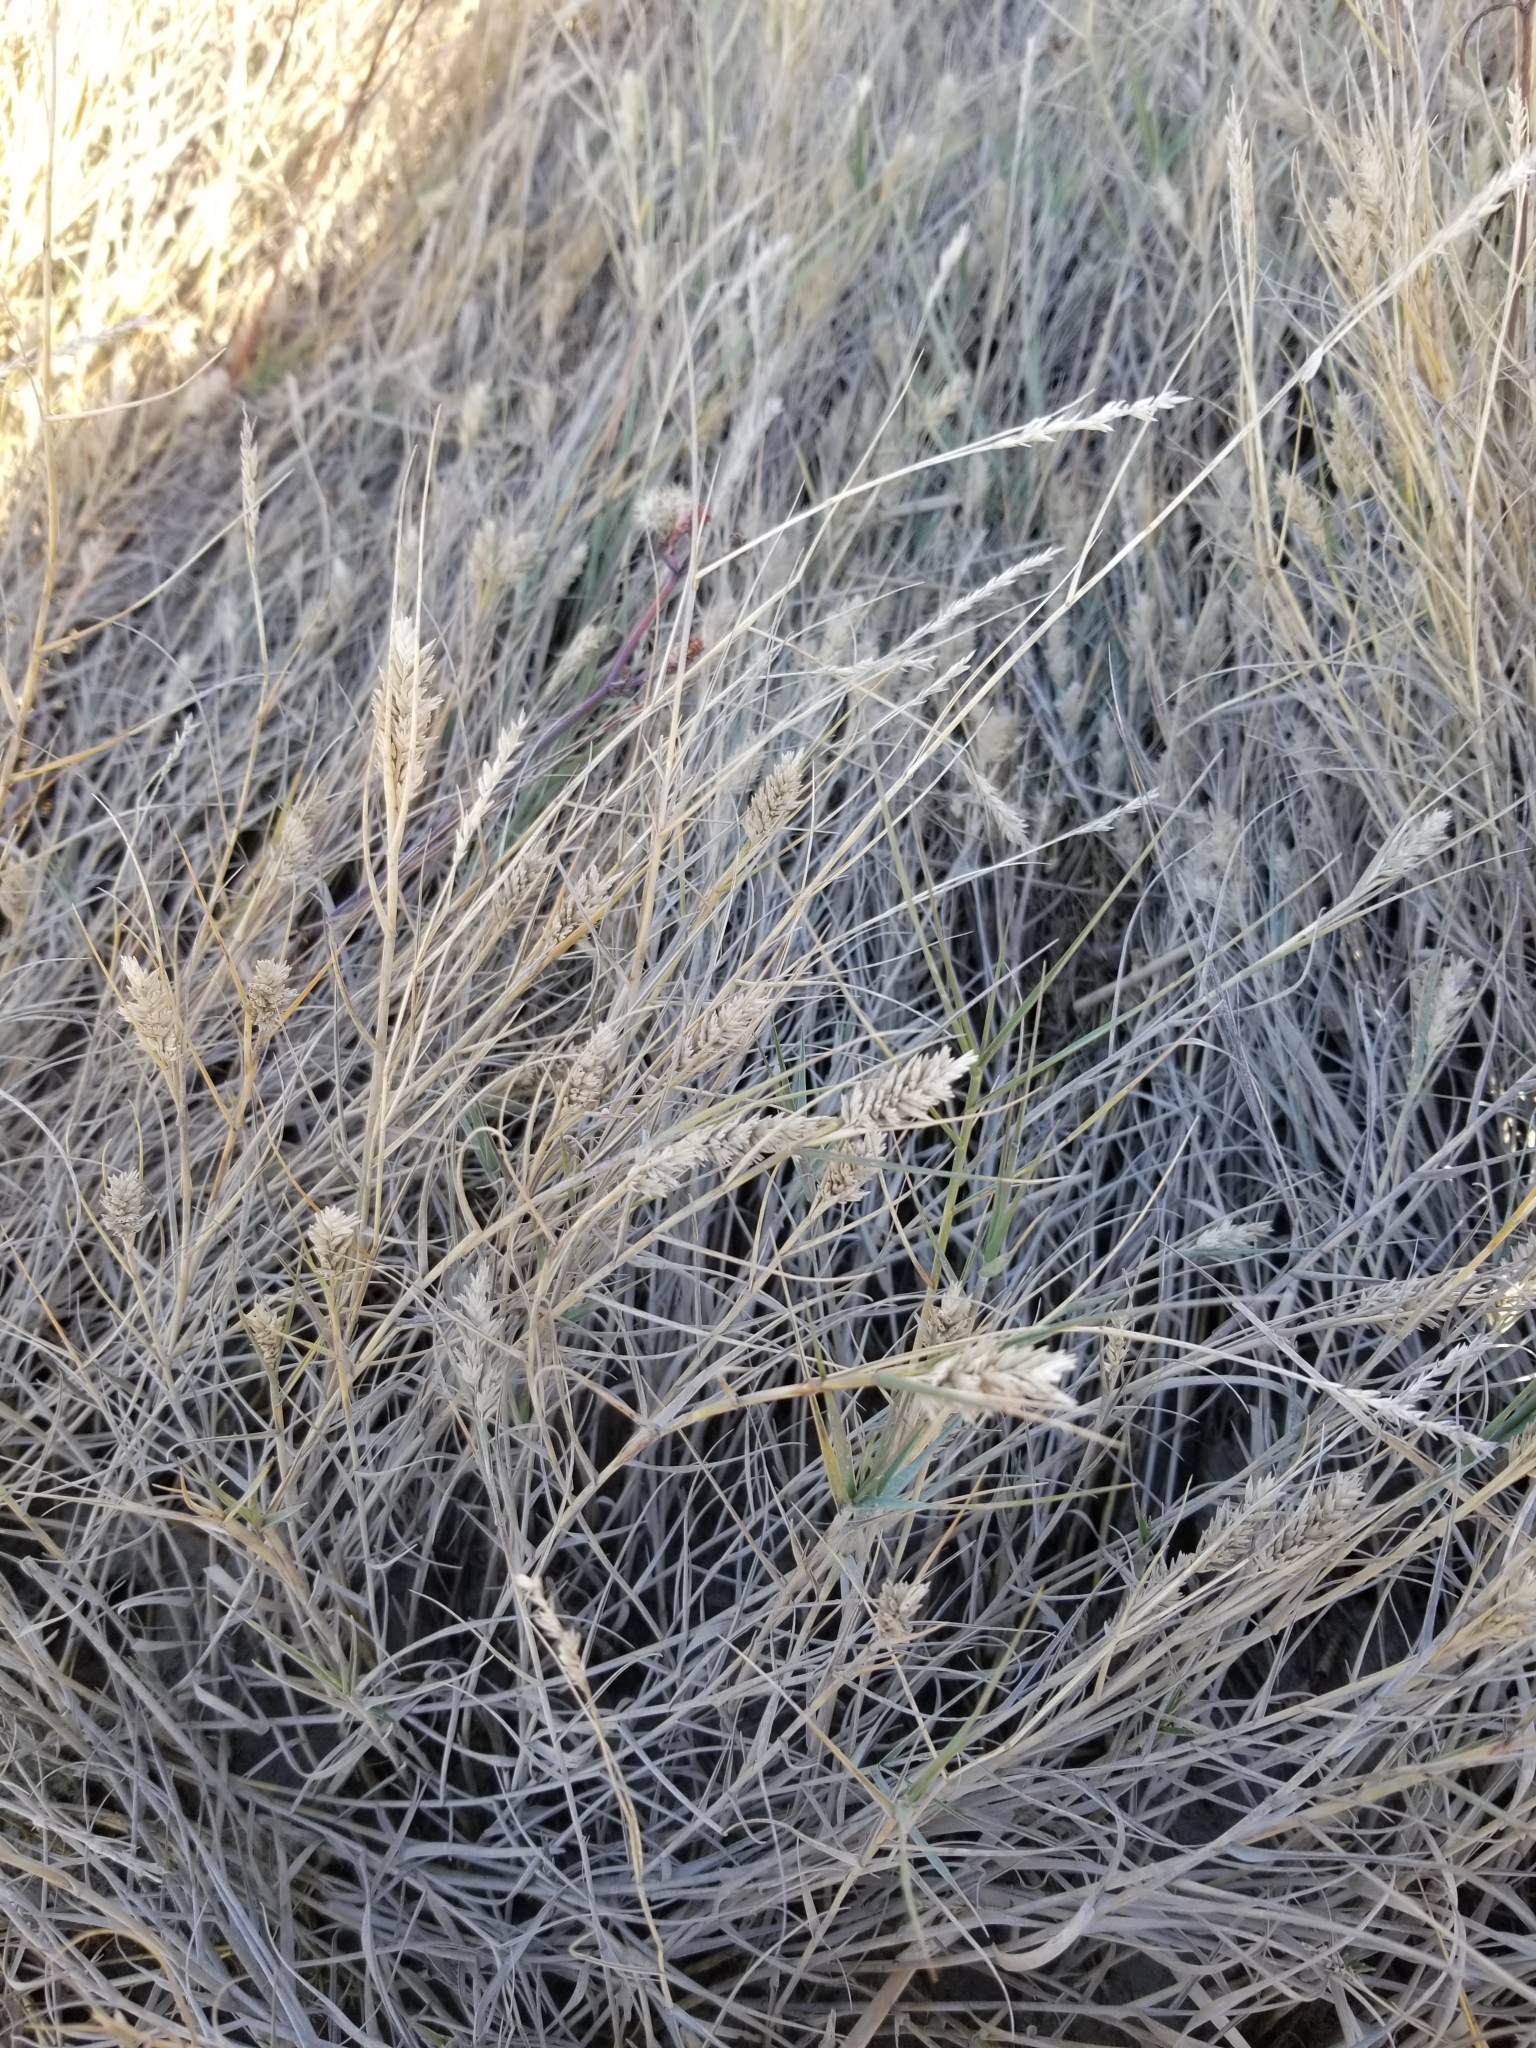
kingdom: Plantae
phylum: Tracheophyta
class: Liliopsida
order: Poales
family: Poaceae
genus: Distichlis
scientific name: Distichlis spicata
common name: Saltgrass
